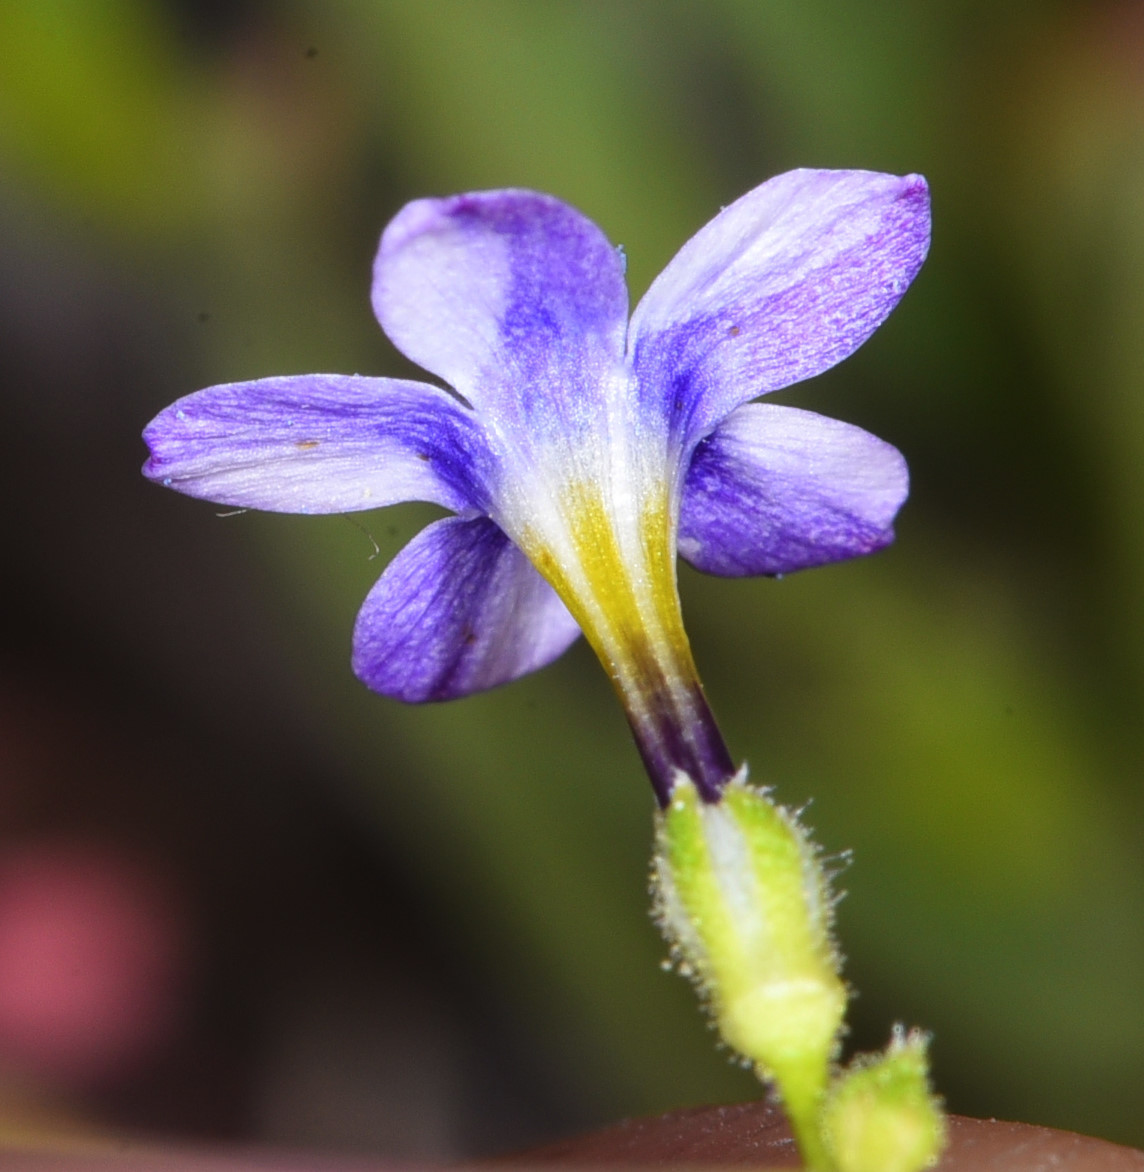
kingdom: Plantae
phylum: Tracheophyta
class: Magnoliopsida
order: Ericales
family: Polemoniaceae
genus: Gilia
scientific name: Gilia cana
